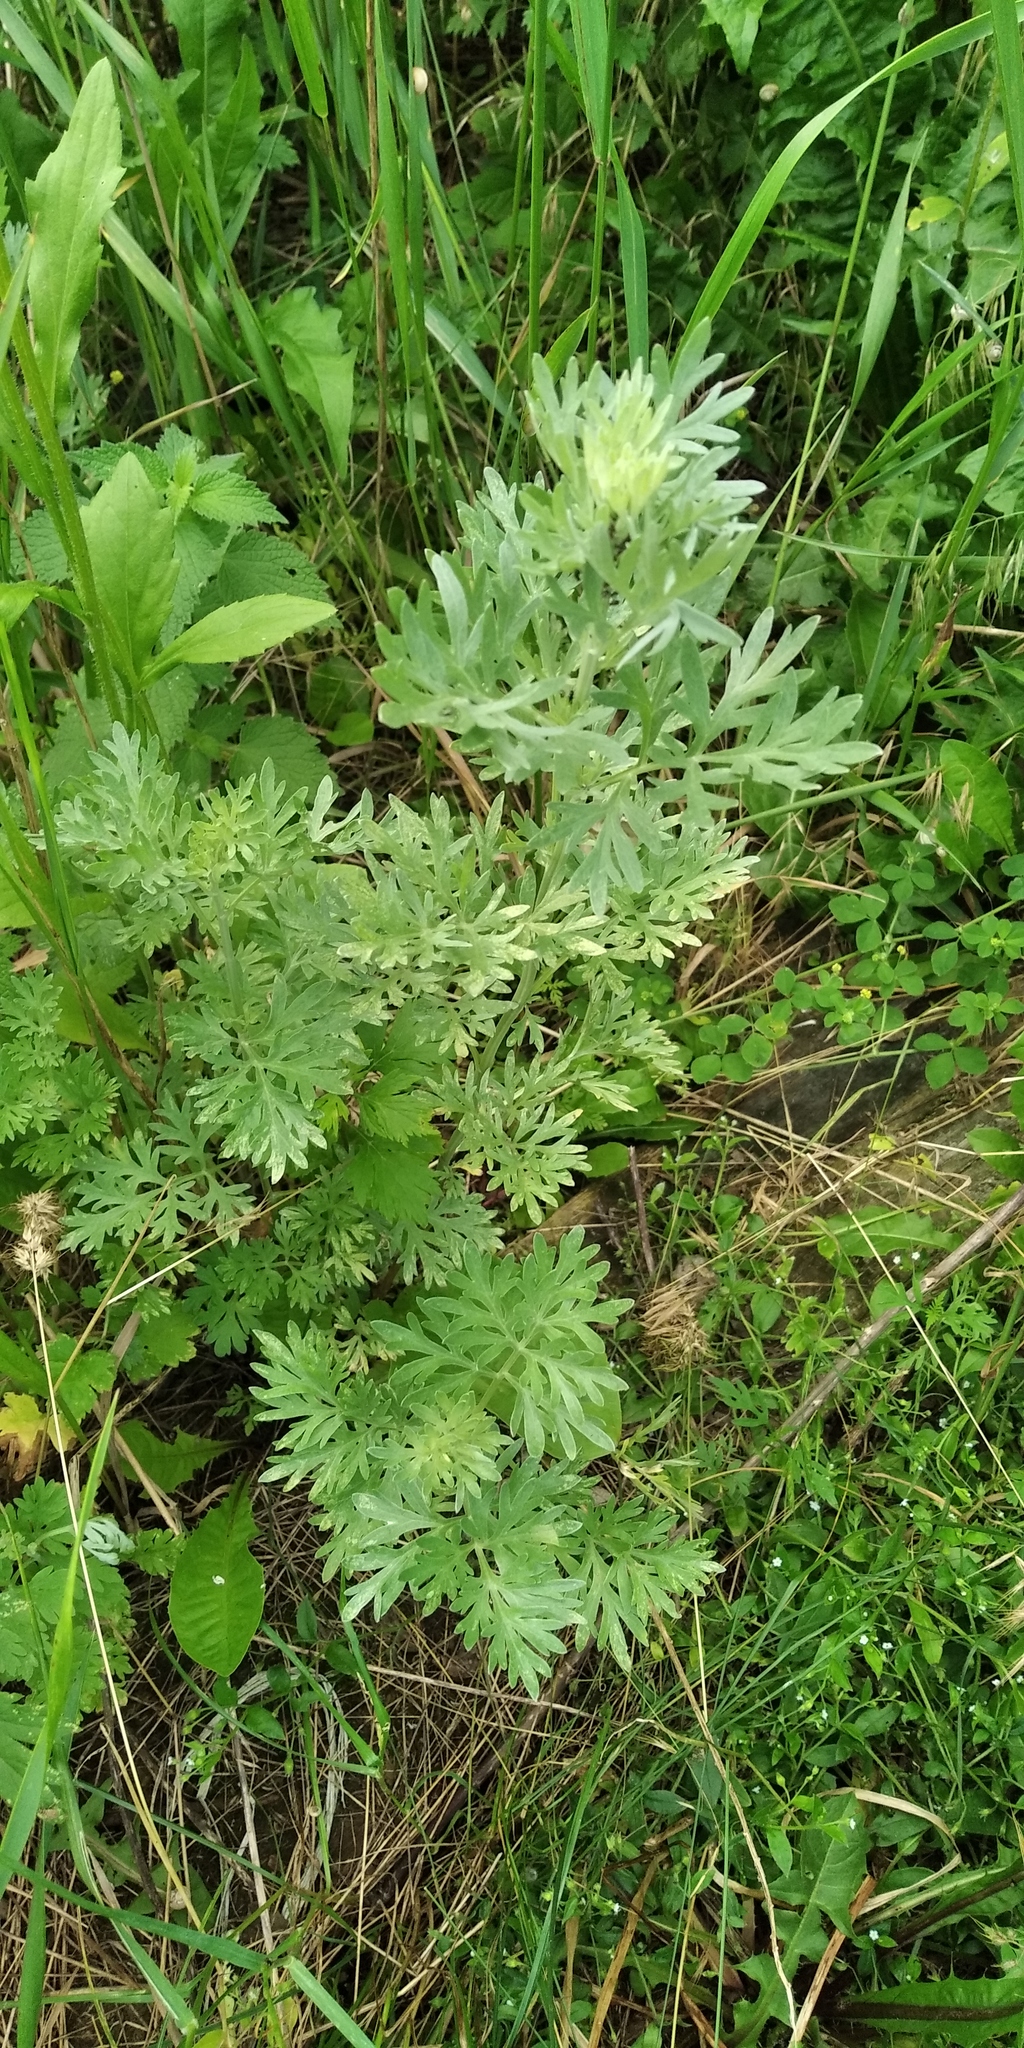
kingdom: Plantae
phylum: Tracheophyta
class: Magnoliopsida
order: Asterales
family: Asteraceae
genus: Artemisia
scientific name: Artemisia absinthium
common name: Wormwood
